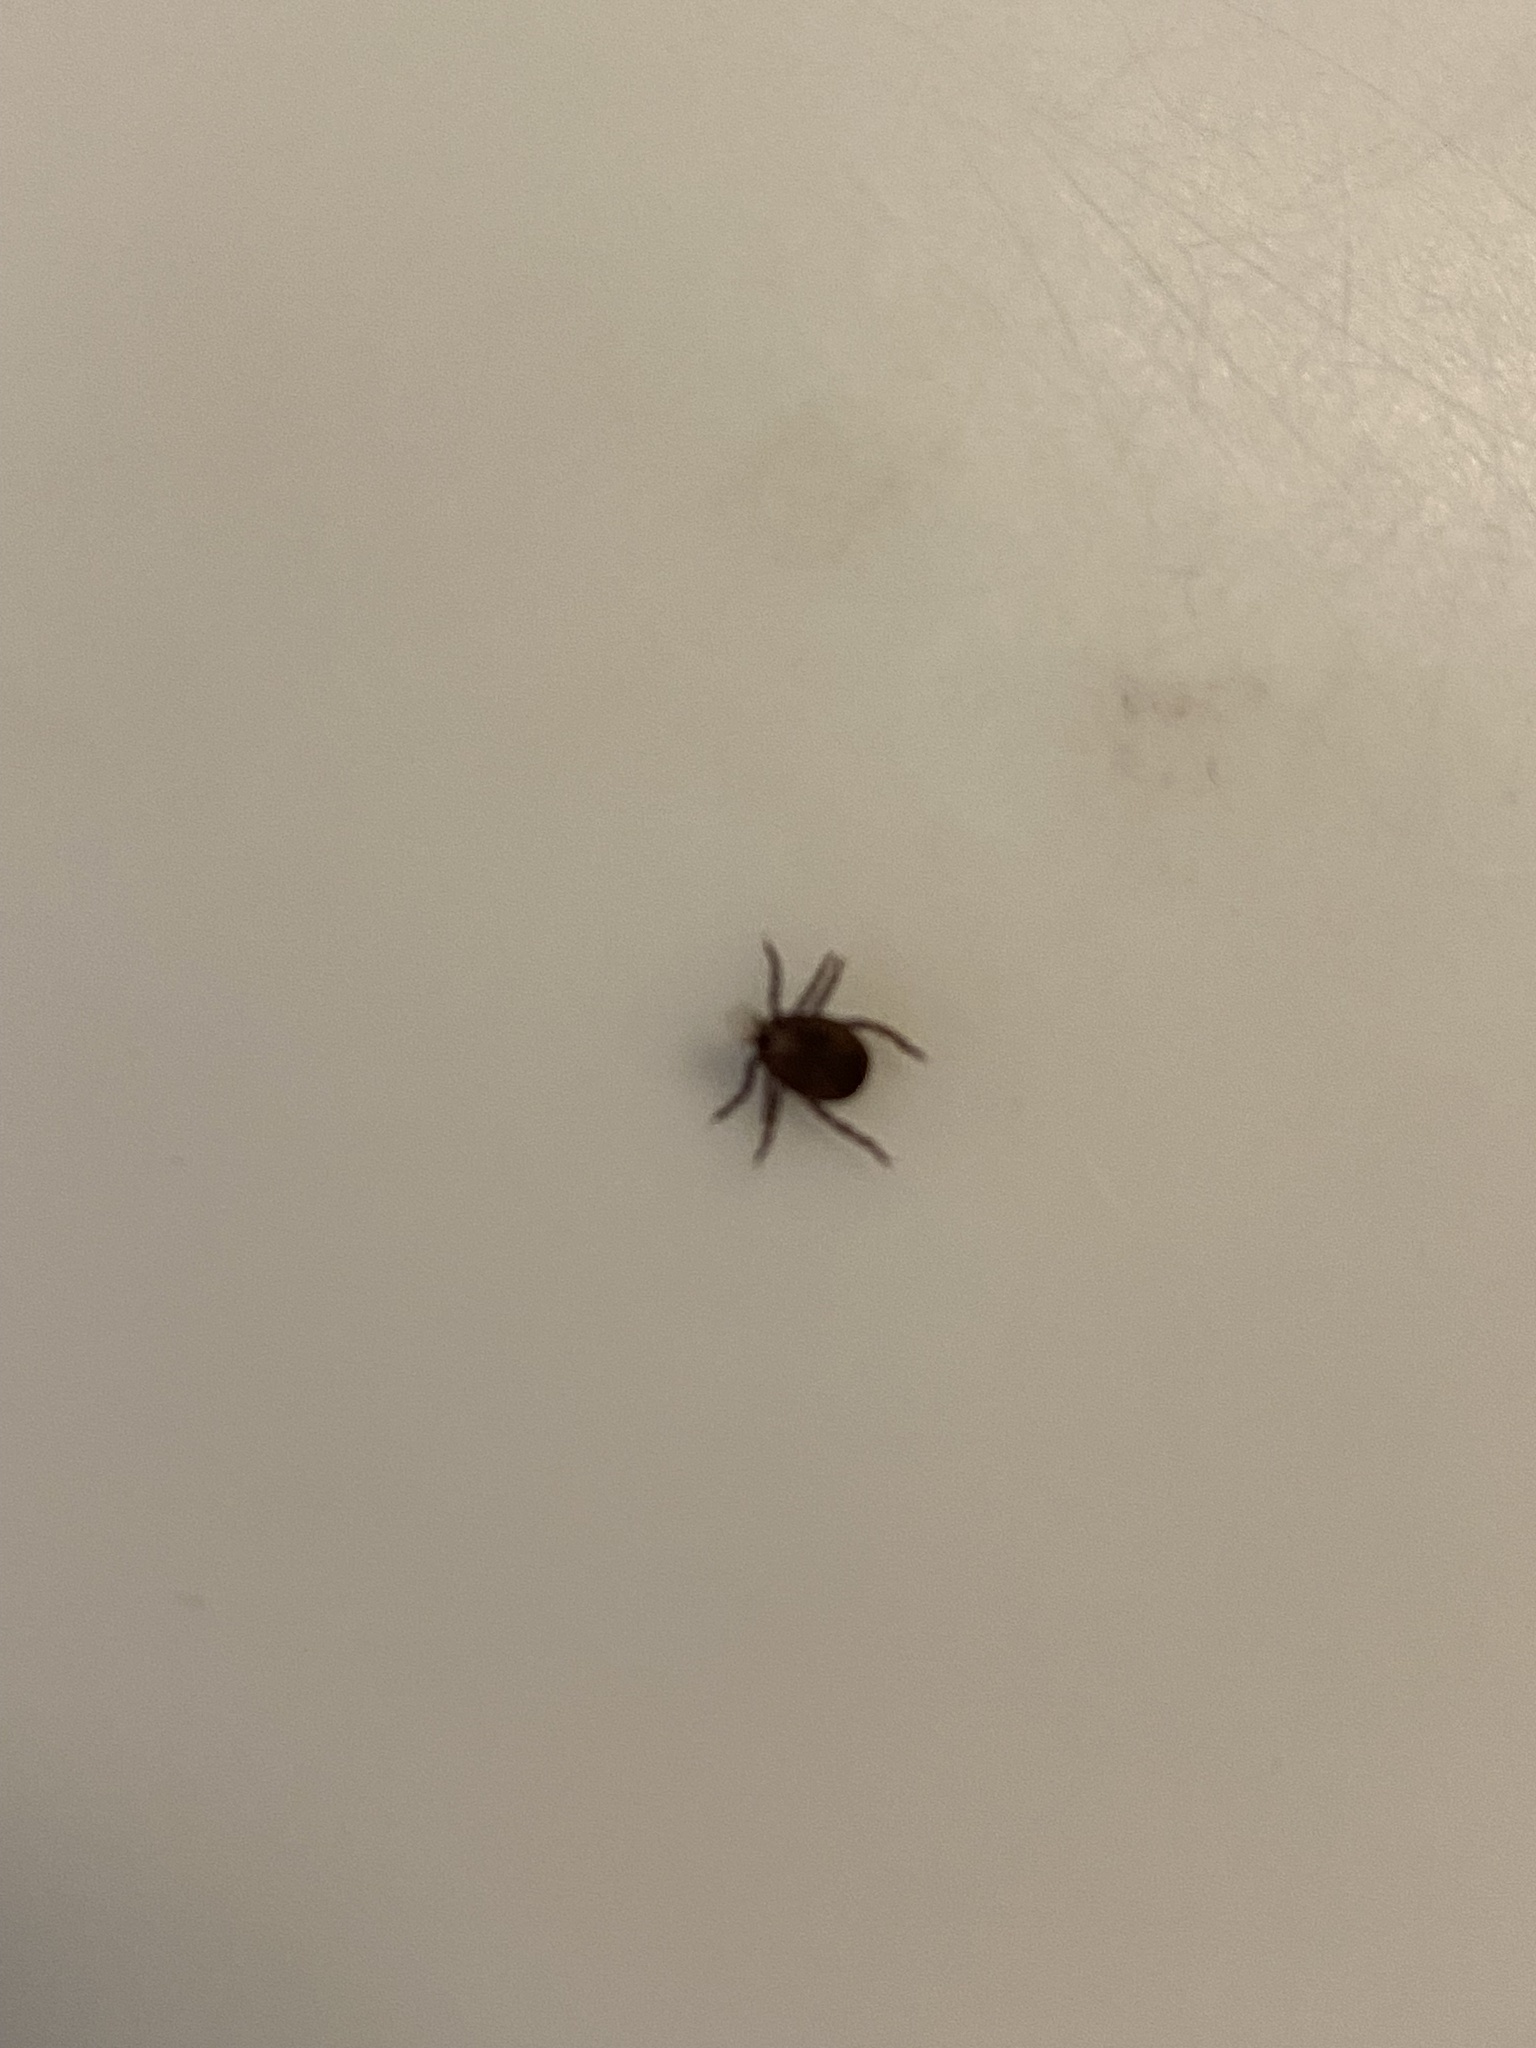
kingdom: Animalia
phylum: Arthropoda
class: Arachnida
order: Ixodida
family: Ixodidae
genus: Dermacentor
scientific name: Dermacentor variabilis
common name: American dog tick
